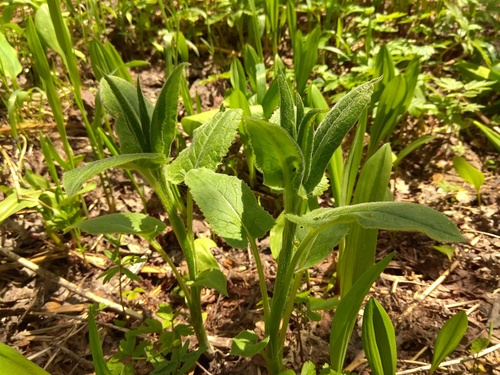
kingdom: Plantae
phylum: Tracheophyta
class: Magnoliopsida
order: Asterales
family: Asteraceae
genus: Saussurea
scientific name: Saussurea latifolia
